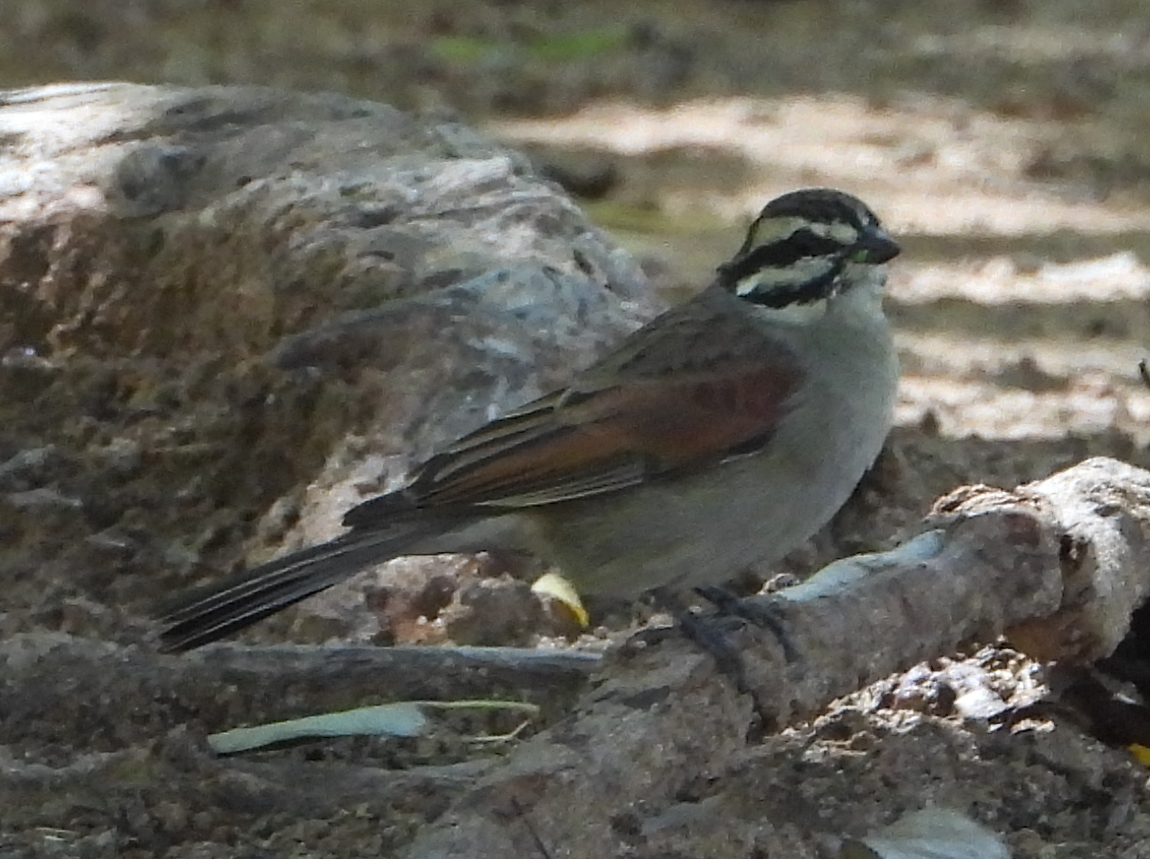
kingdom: Animalia
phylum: Chordata
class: Aves
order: Passeriformes
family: Emberizidae
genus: Emberiza
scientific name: Emberiza capensis
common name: Cape bunting
